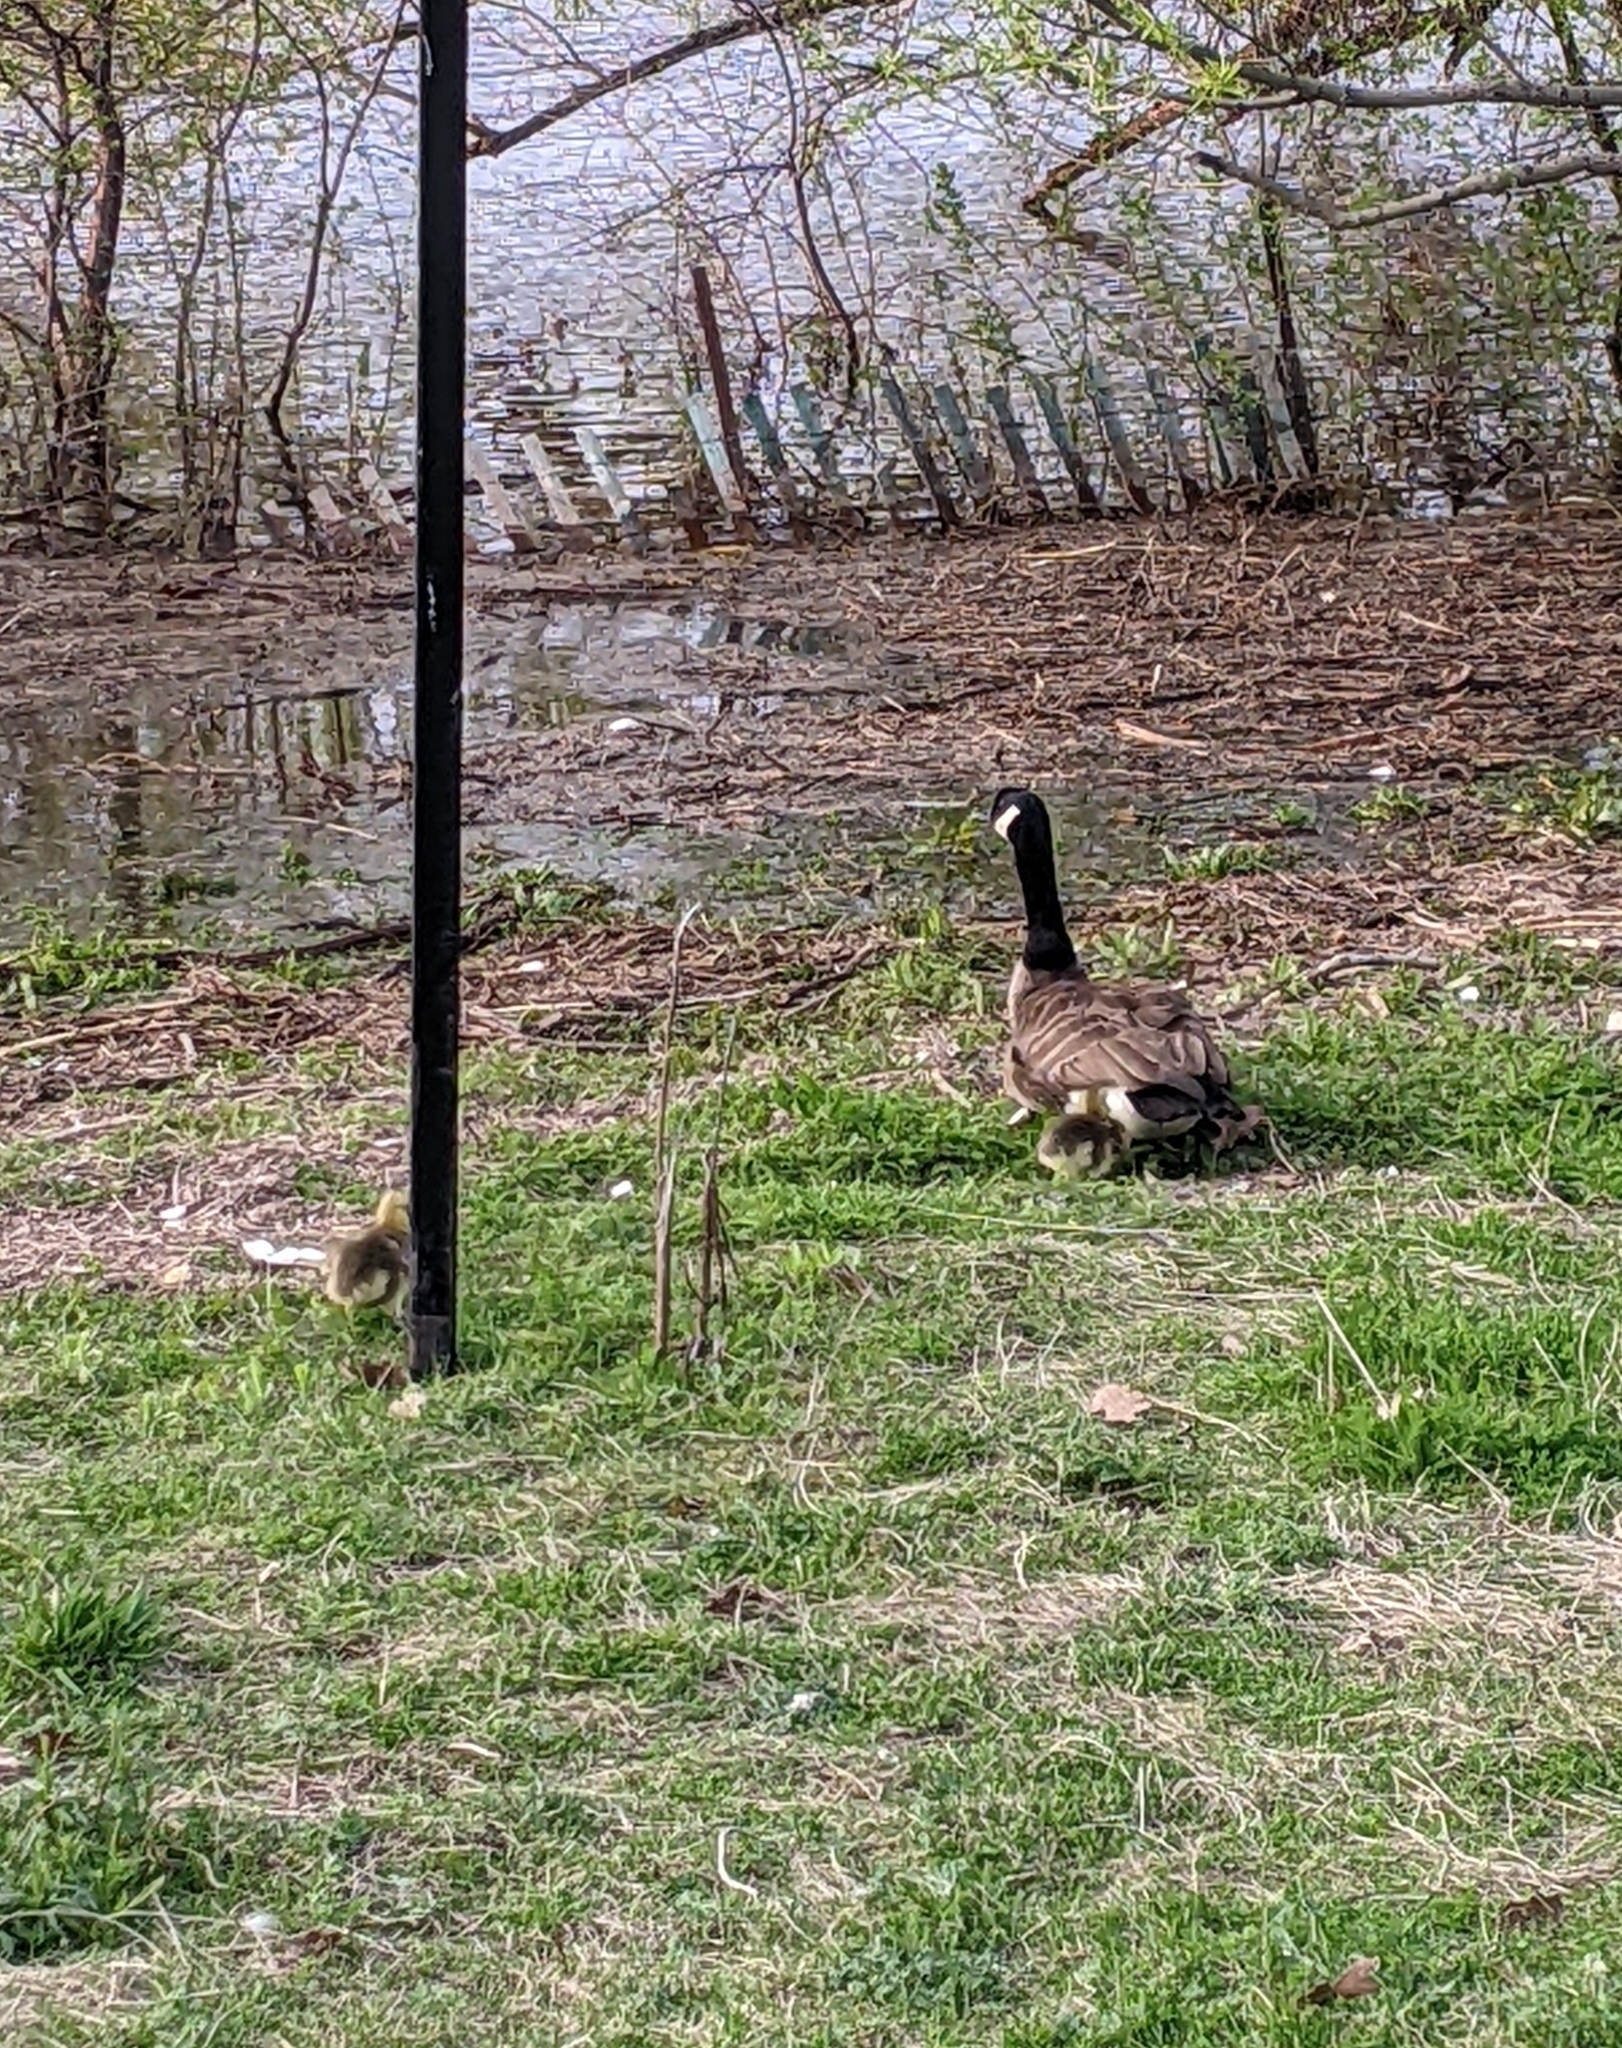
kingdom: Animalia
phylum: Chordata
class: Aves
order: Anseriformes
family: Anatidae
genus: Branta
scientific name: Branta canadensis
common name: Canada goose
